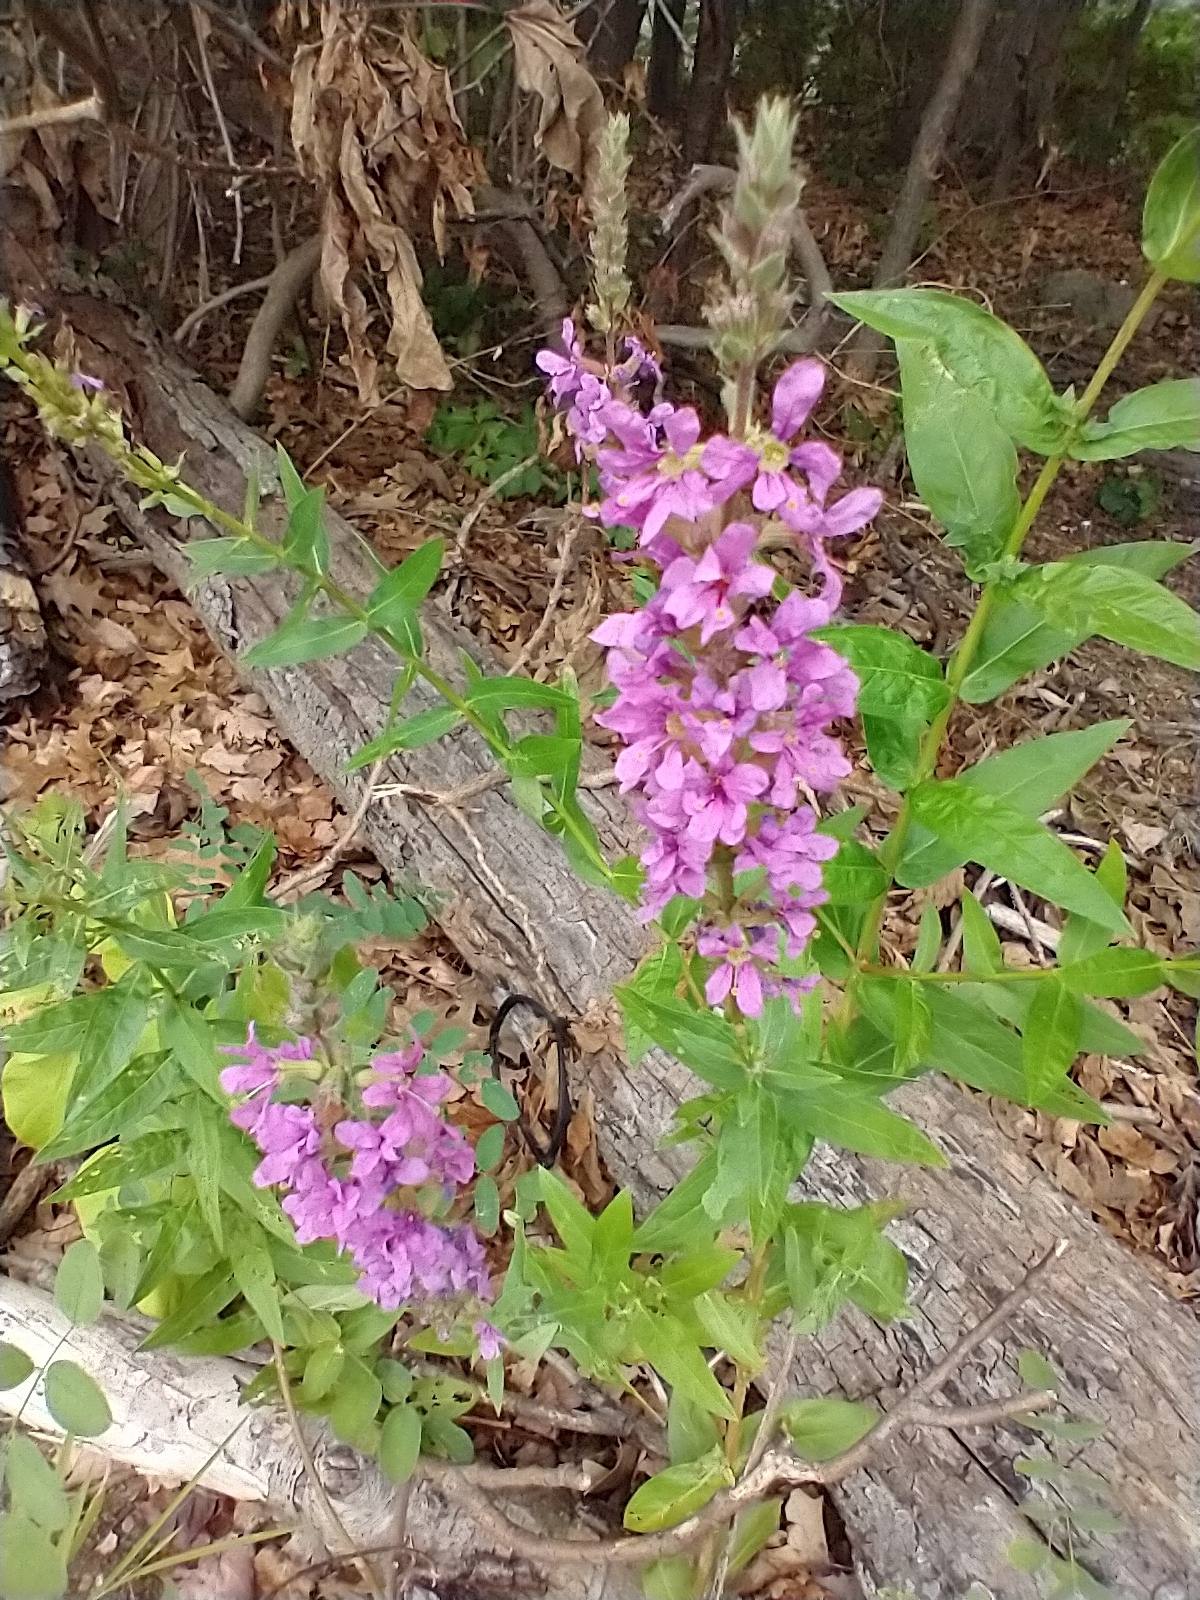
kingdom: Plantae
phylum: Tracheophyta
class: Magnoliopsida
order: Myrtales
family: Lythraceae
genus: Lythrum
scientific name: Lythrum salicaria
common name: Purple loosestrife
